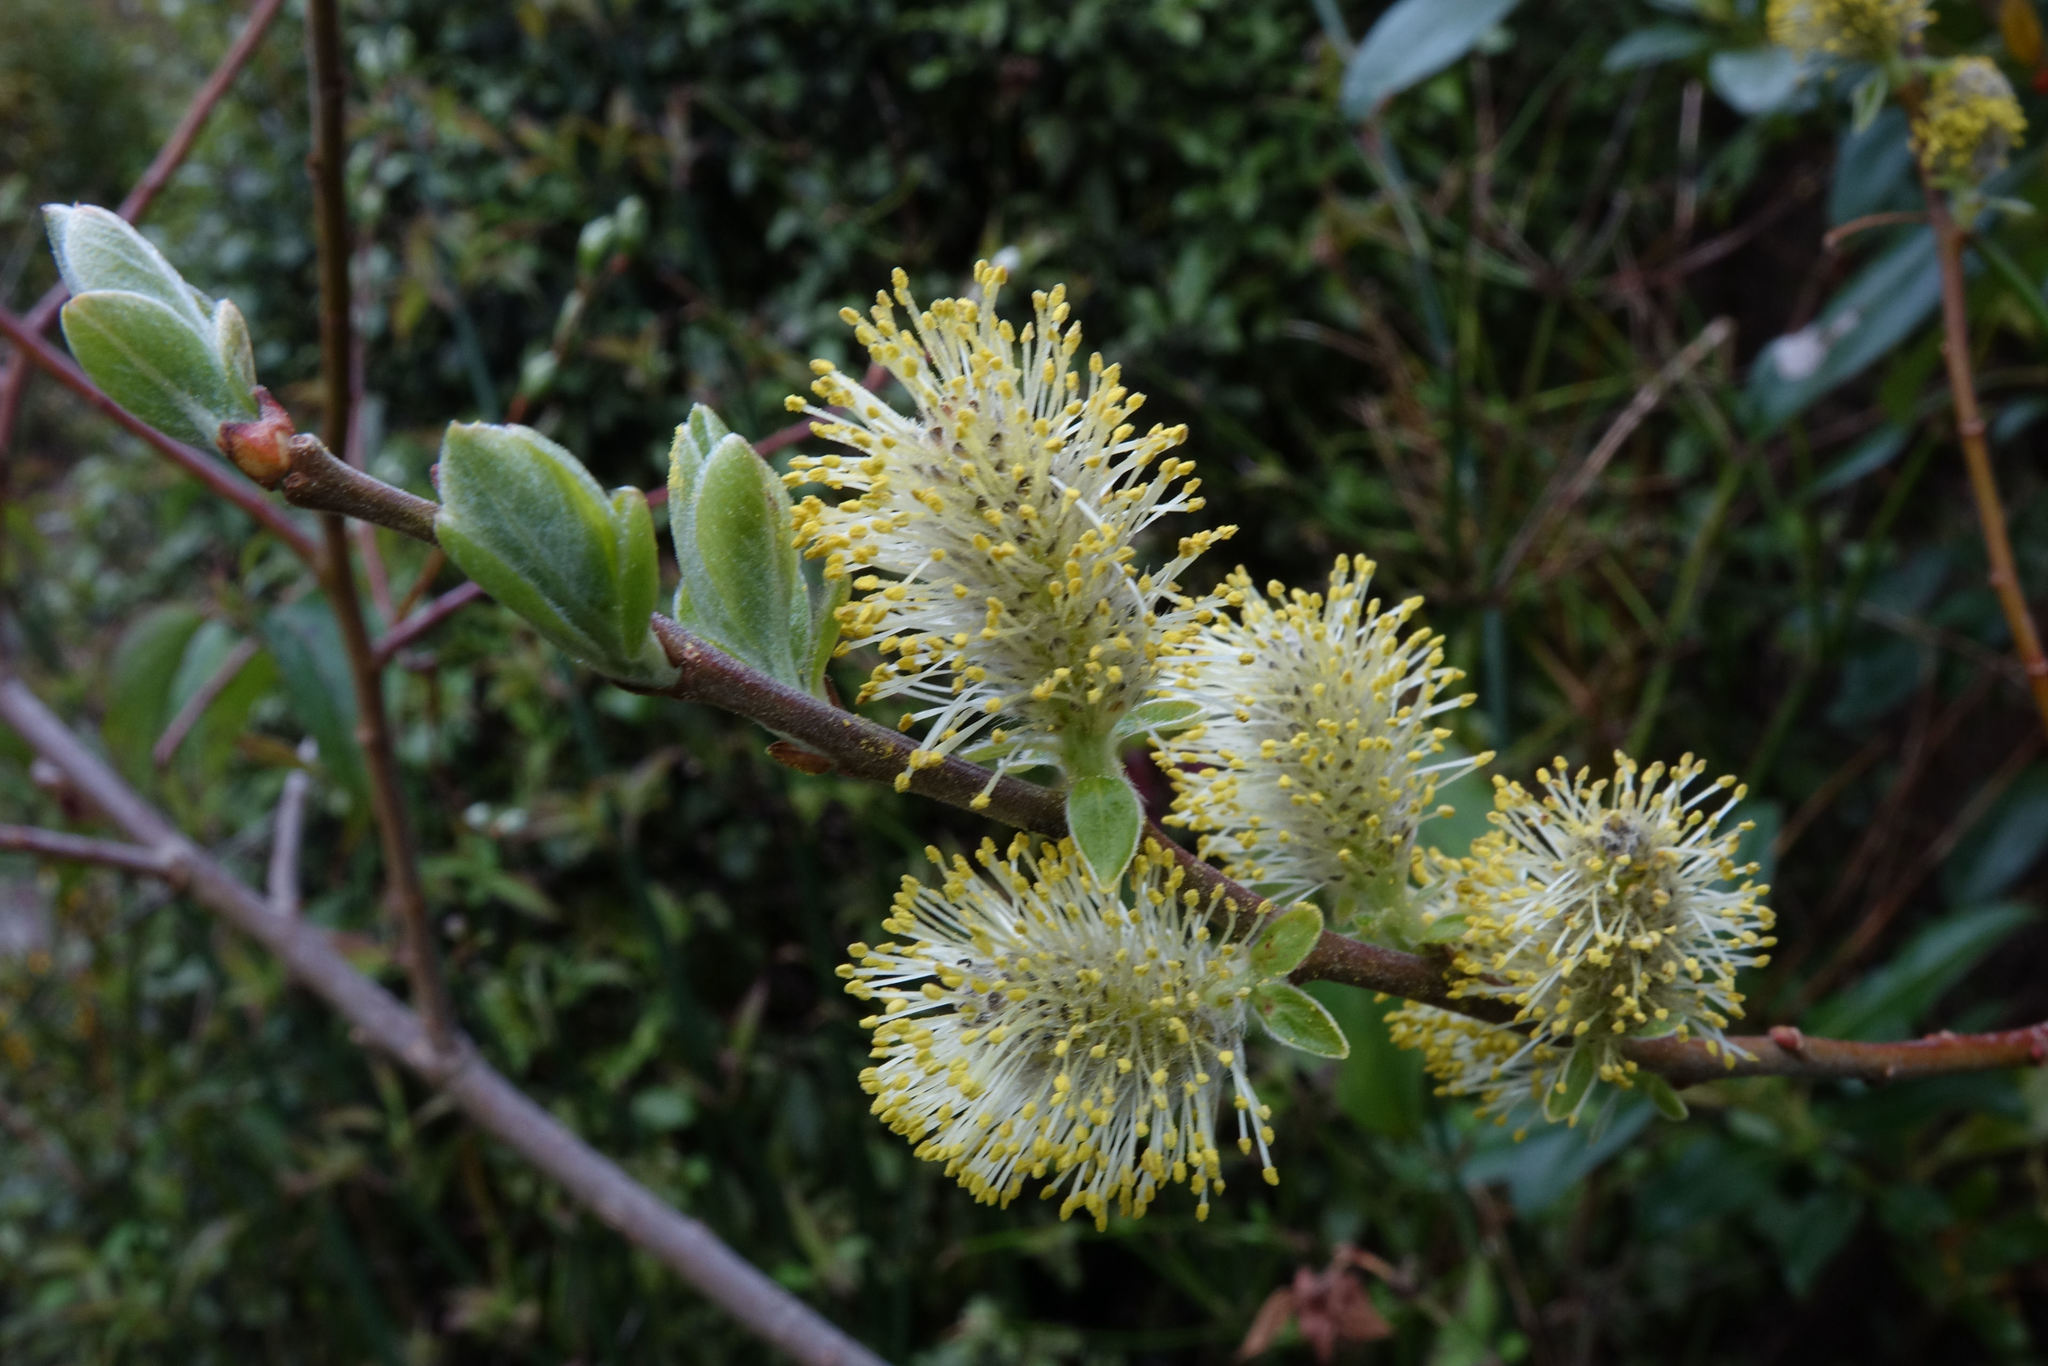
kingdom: Plantae
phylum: Tracheophyta
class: Magnoliopsida
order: Malpighiales
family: Salicaceae
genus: Salix
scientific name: Salix cinerea
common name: Common sallow
